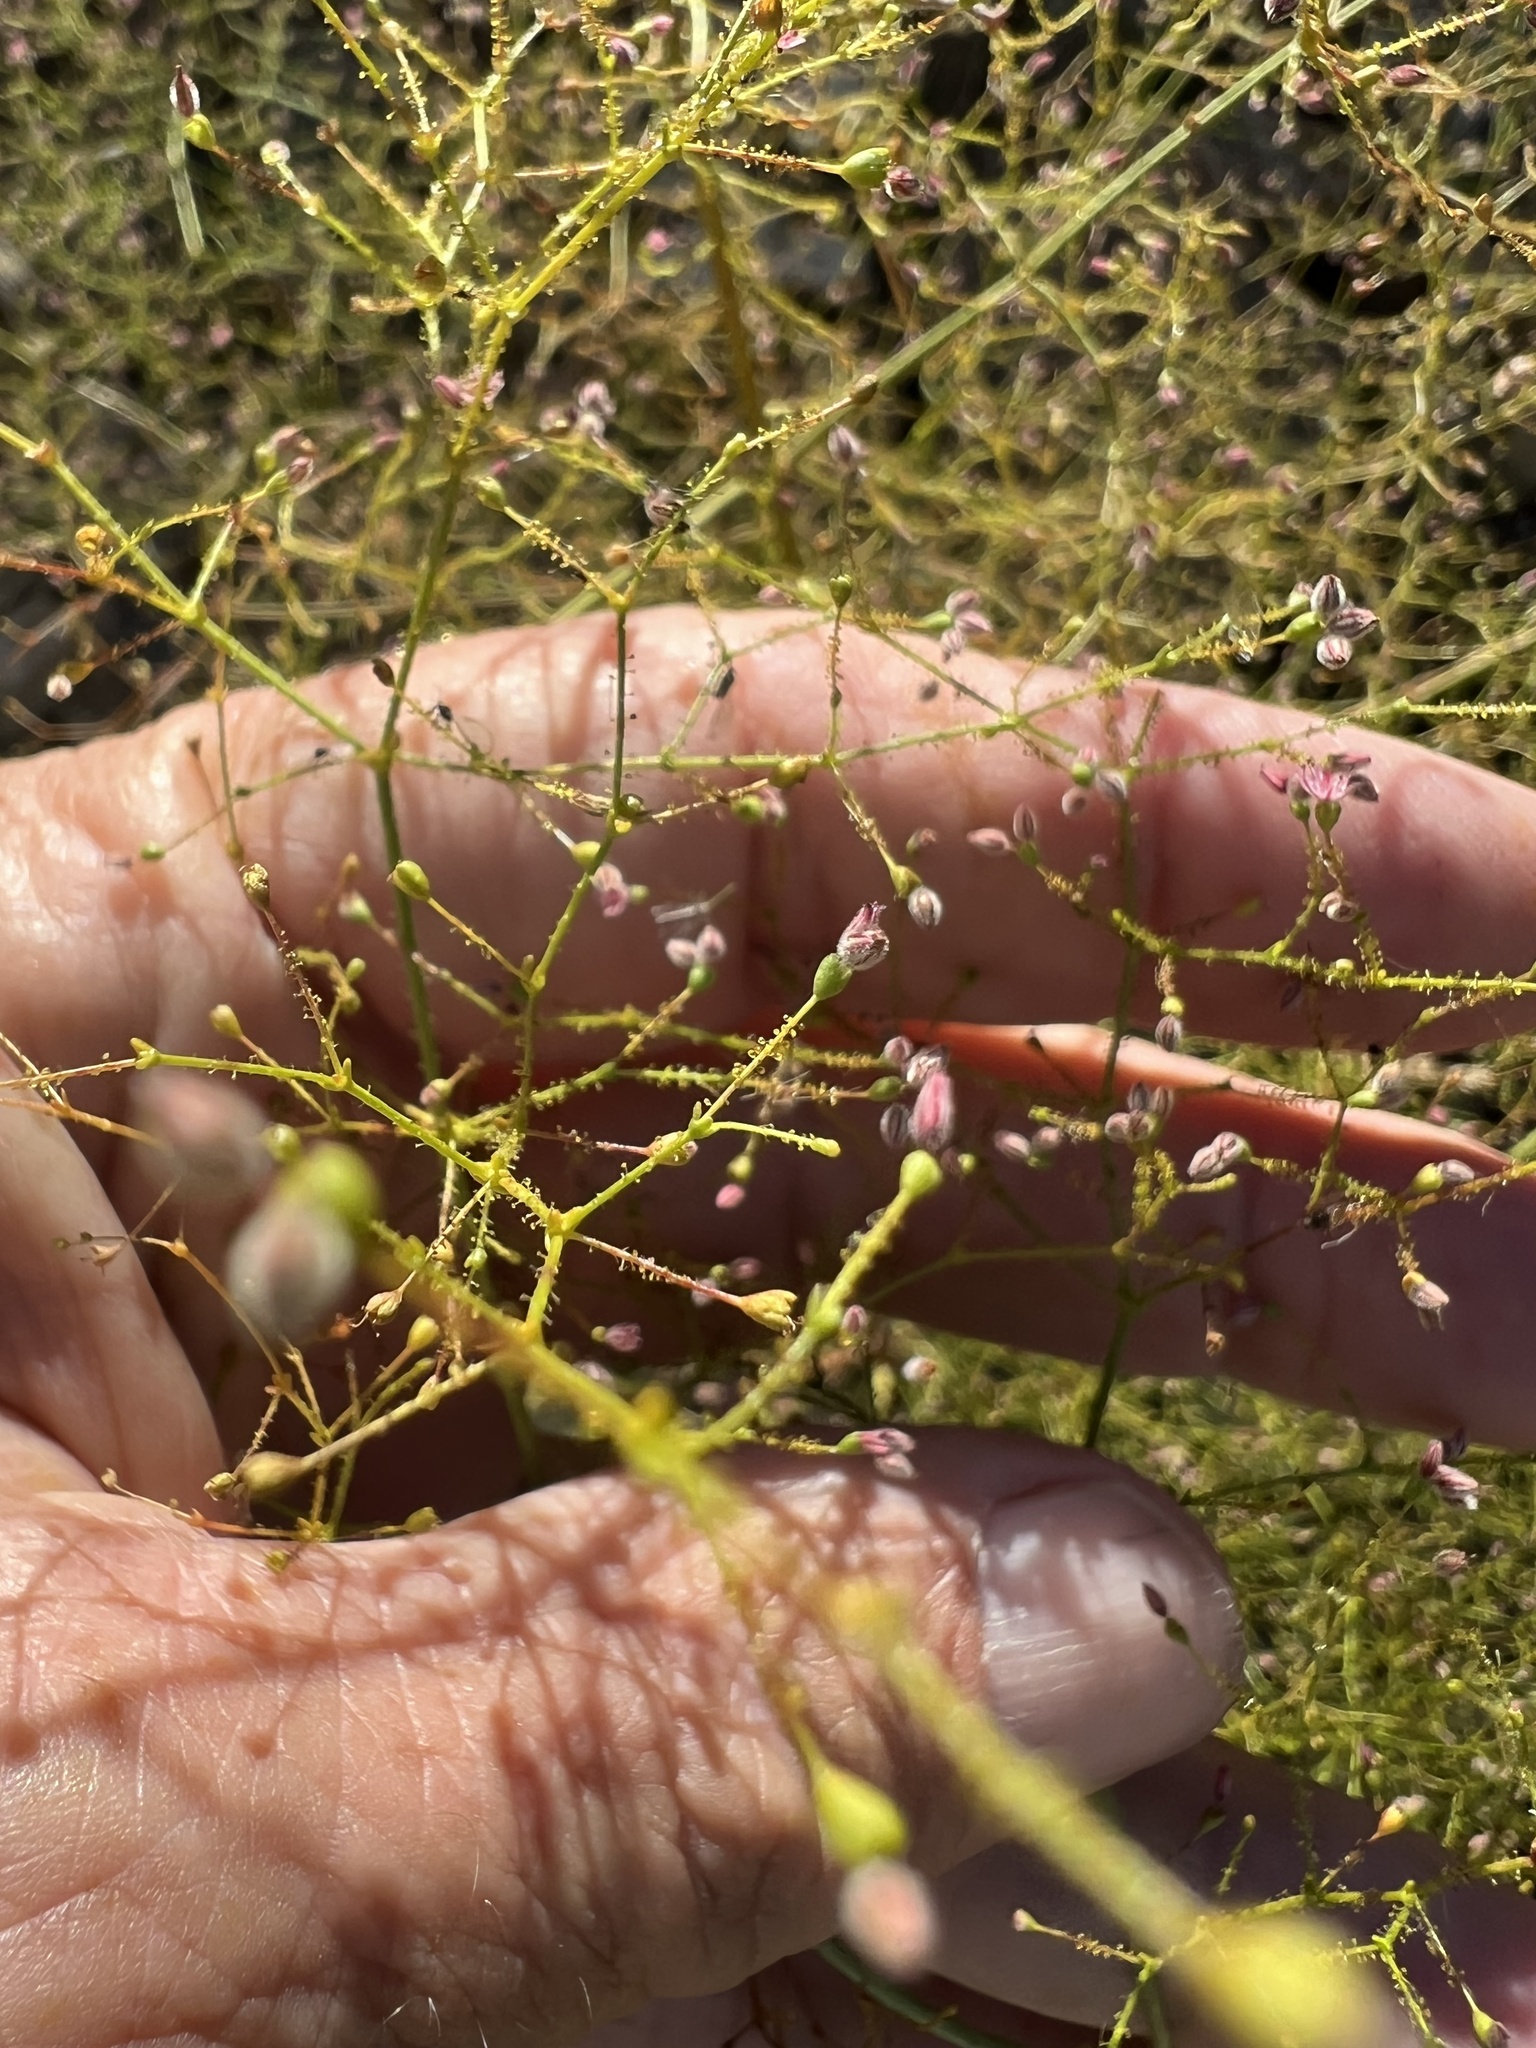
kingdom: Plantae
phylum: Tracheophyta
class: Magnoliopsida
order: Caryophyllales
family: Polygonaceae
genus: Eriogonum
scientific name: Eriogonum glandulosum
